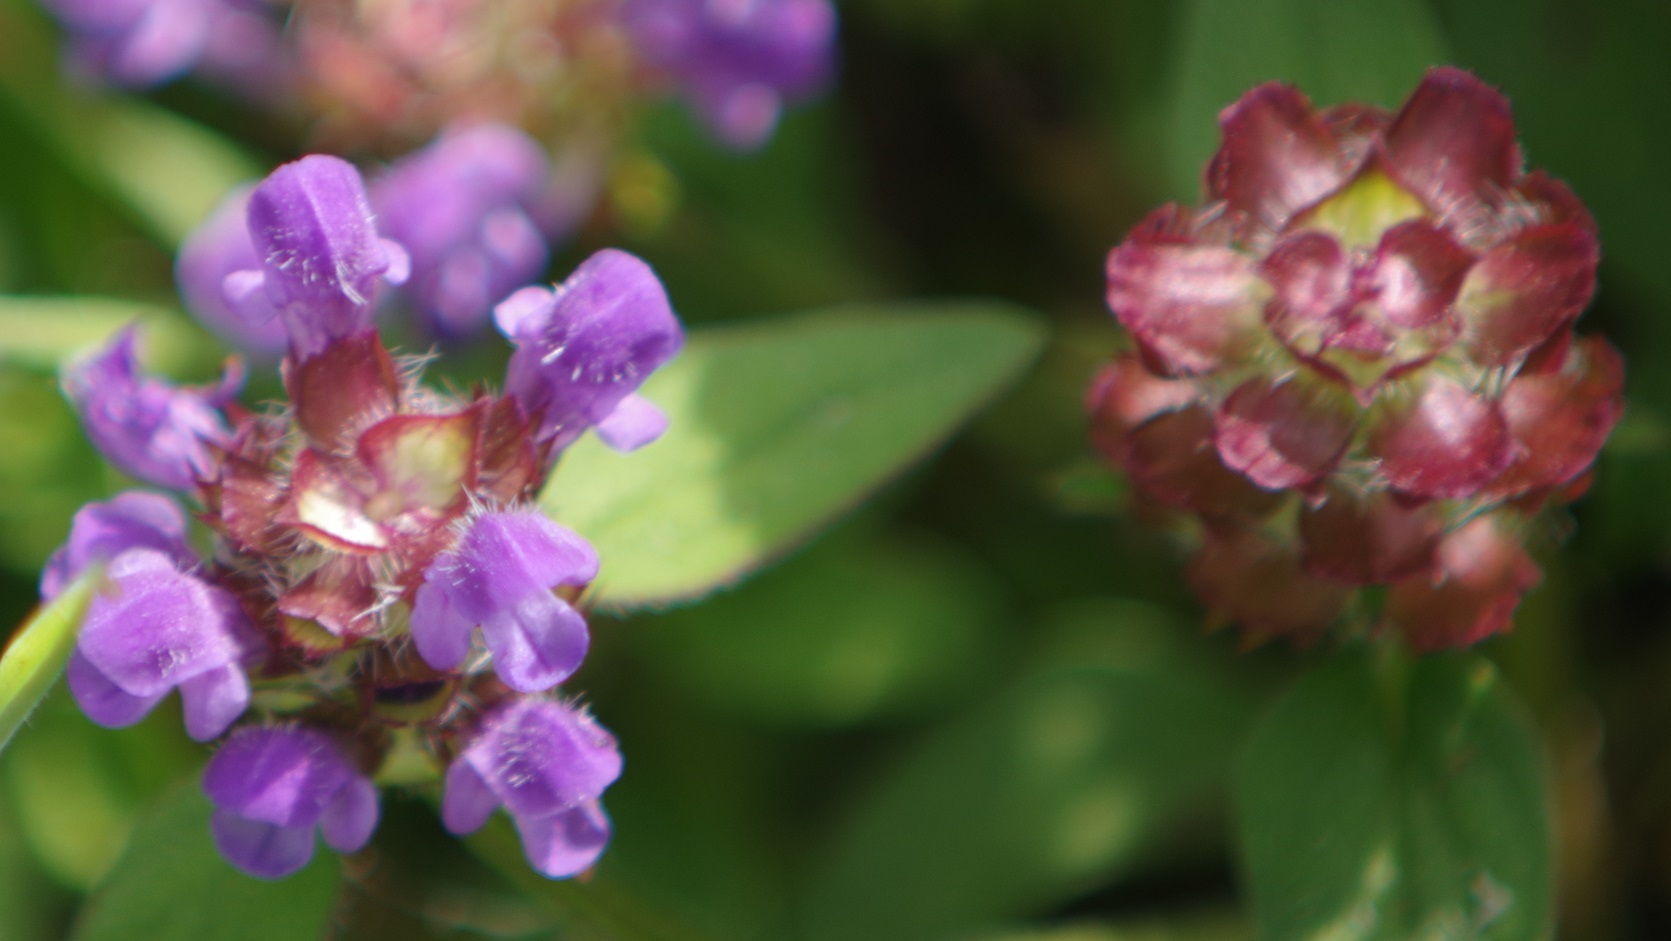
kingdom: Plantae
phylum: Tracheophyta
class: Magnoliopsida
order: Lamiales
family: Lamiaceae
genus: Prunella
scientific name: Prunella vulgaris
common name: Heal-all
